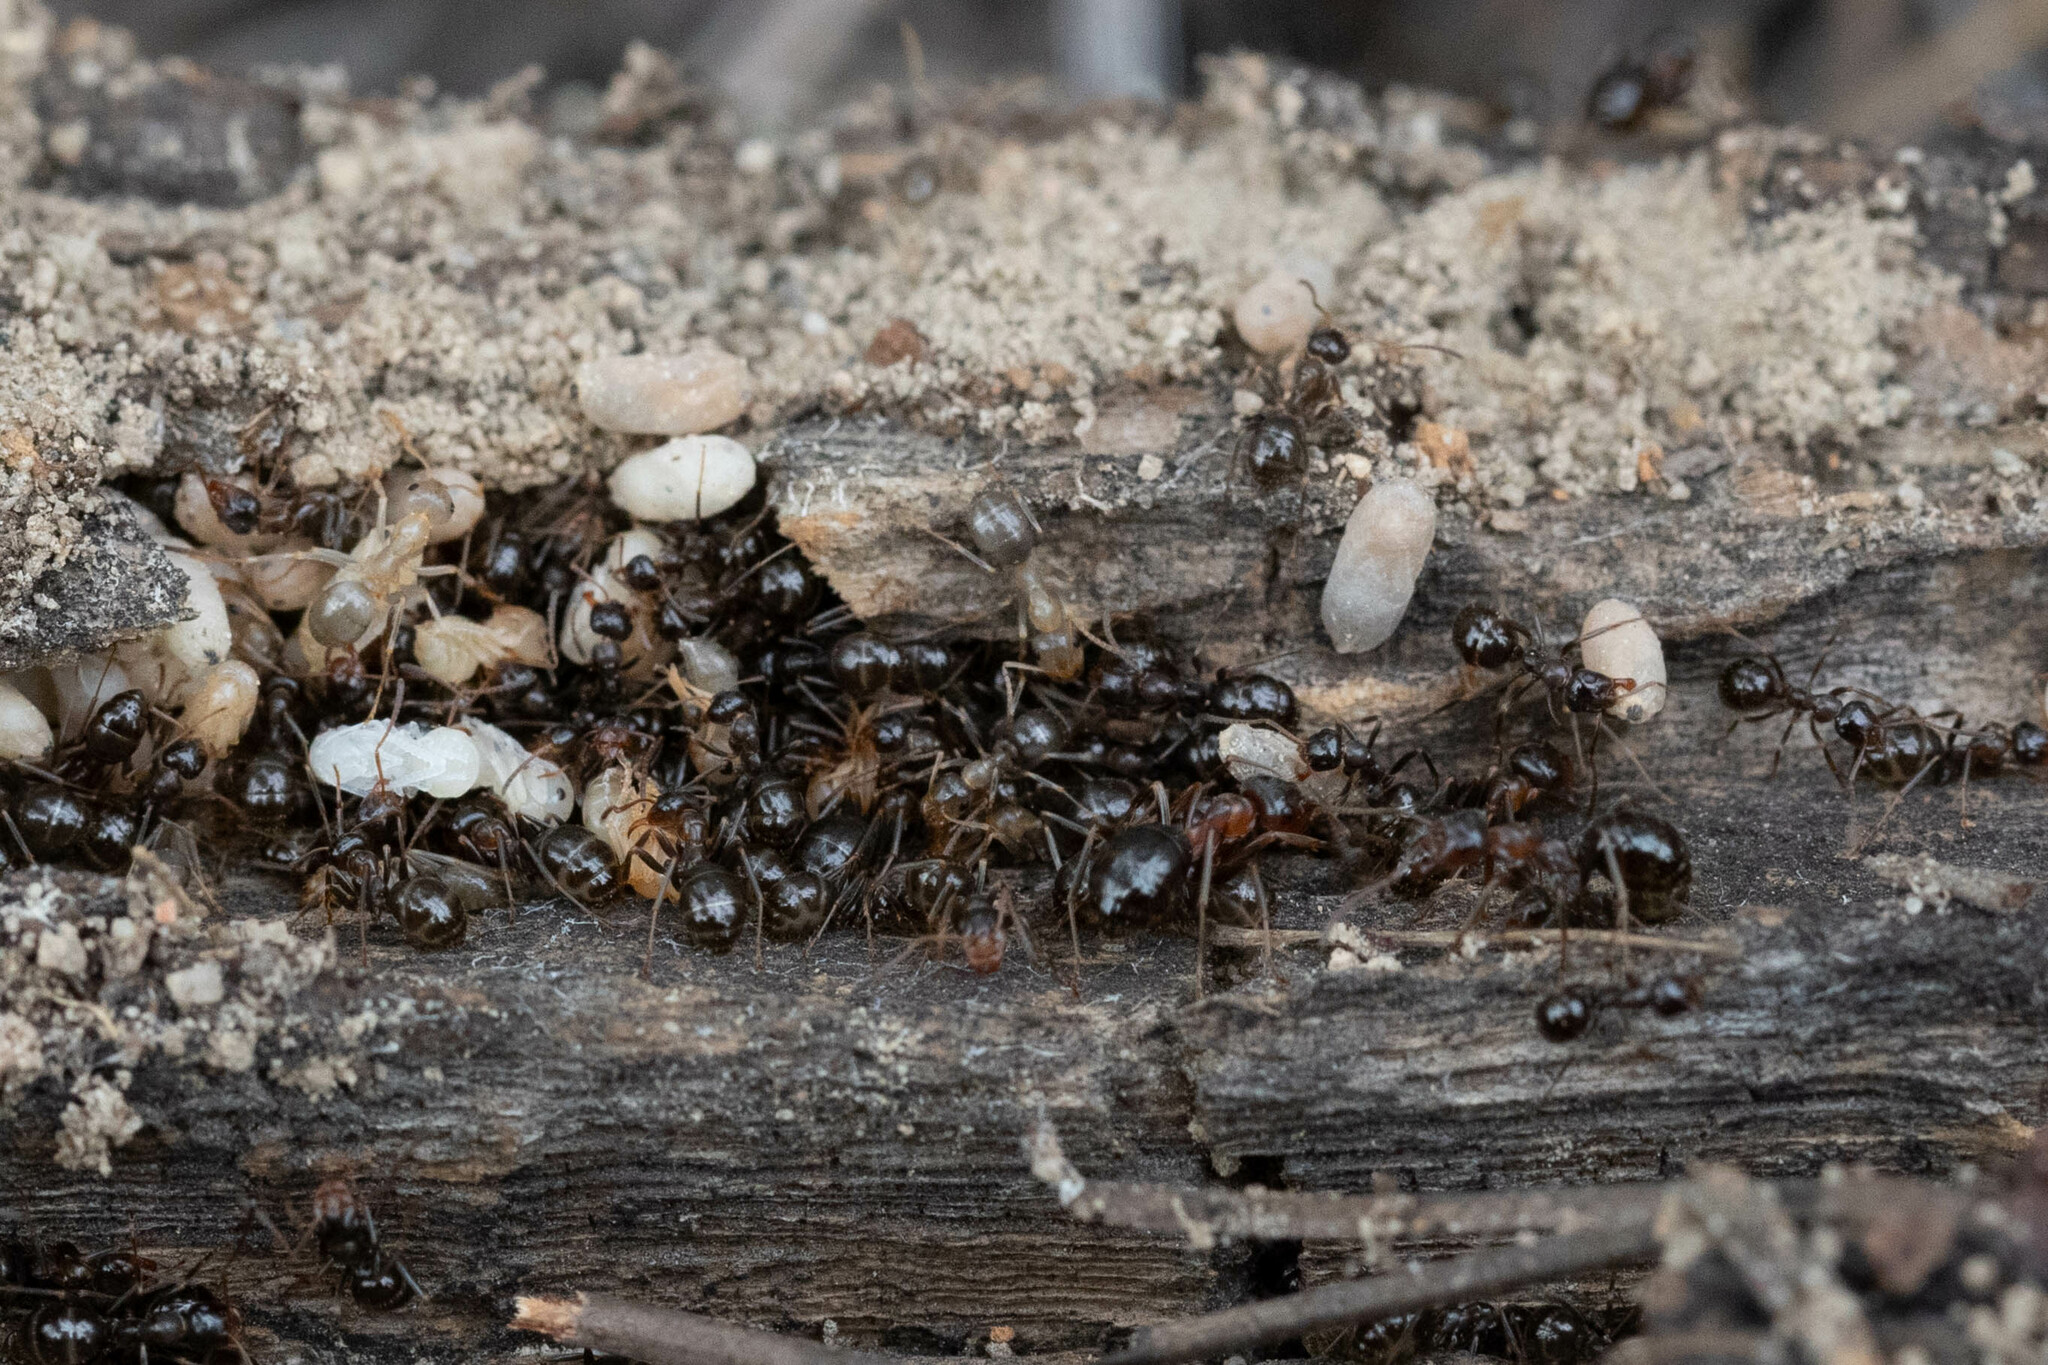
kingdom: Animalia
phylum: Arthropoda
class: Insecta
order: Hymenoptera
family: Formicidae
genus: Formica
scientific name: Formica subpolita
